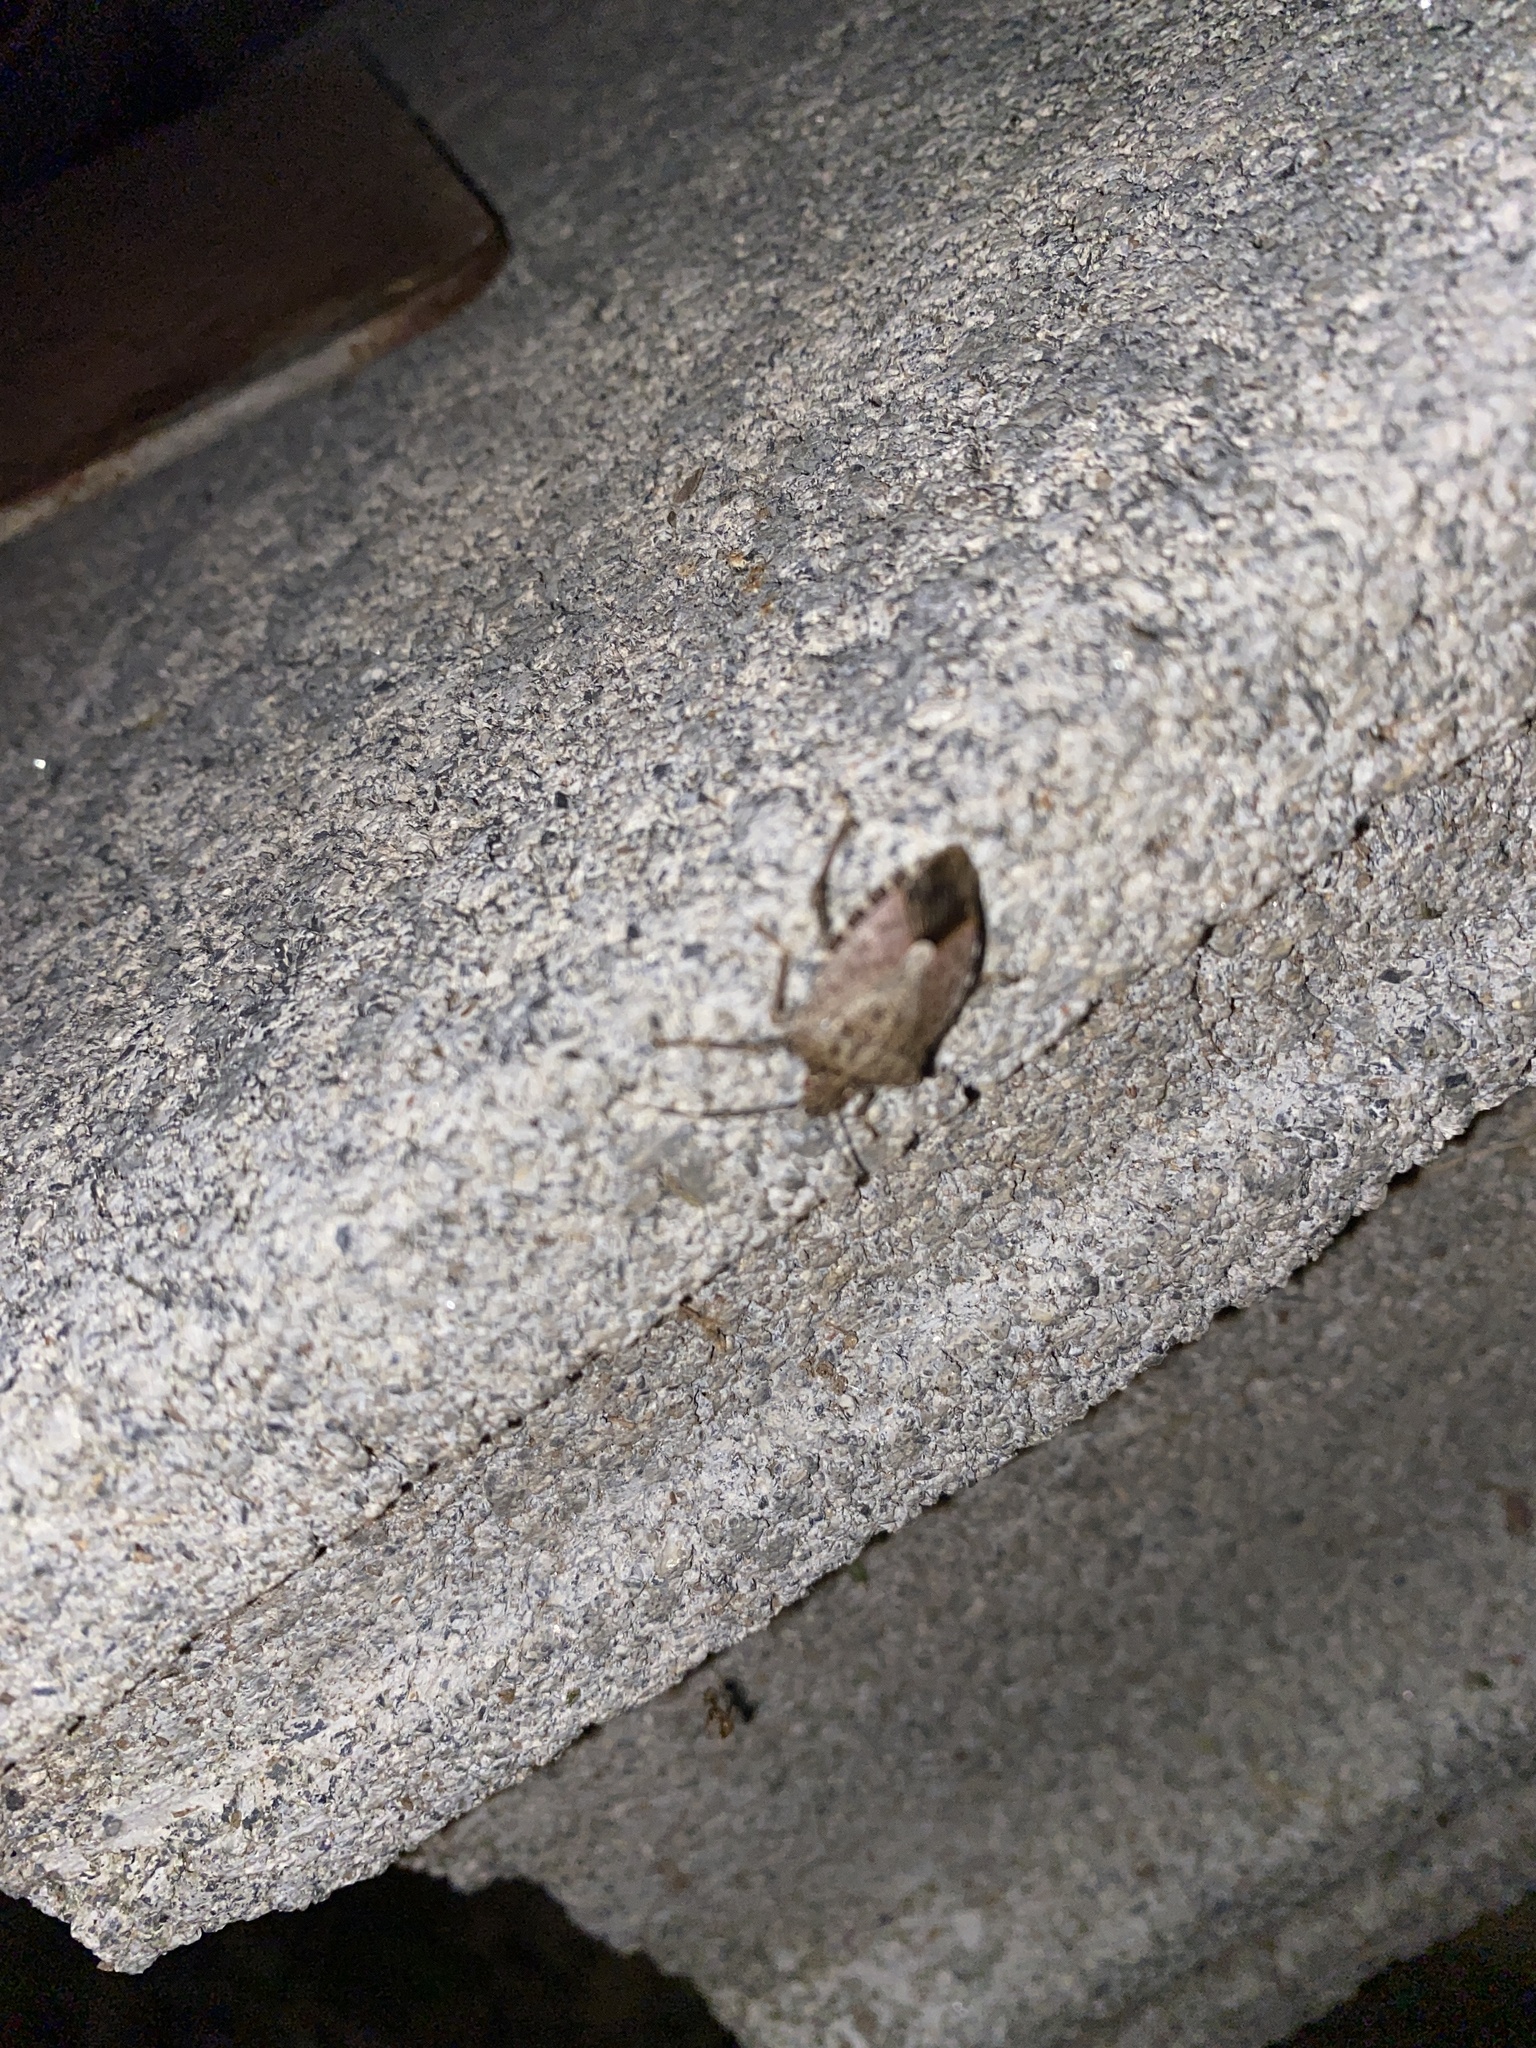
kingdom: Animalia
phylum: Arthropoda
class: Insecta
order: Hemiptera
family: Pentatomidae
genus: Halyomorpha
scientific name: Halyomorpha halys
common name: Brown marmorated stink bug
